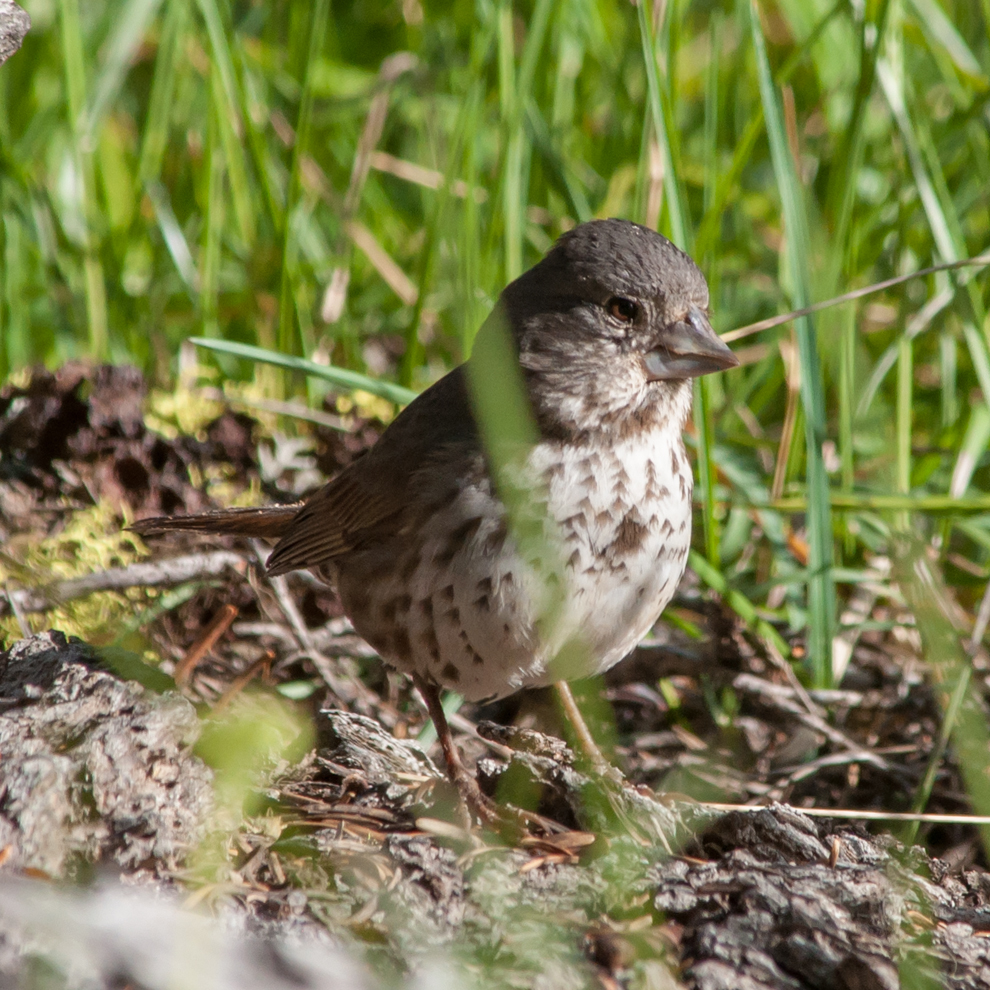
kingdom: Animalia
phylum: Chordata
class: Aves
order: Passeriformes
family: Passerellidae
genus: Passerella
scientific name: Passerella iliaca
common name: Fox sparrow
